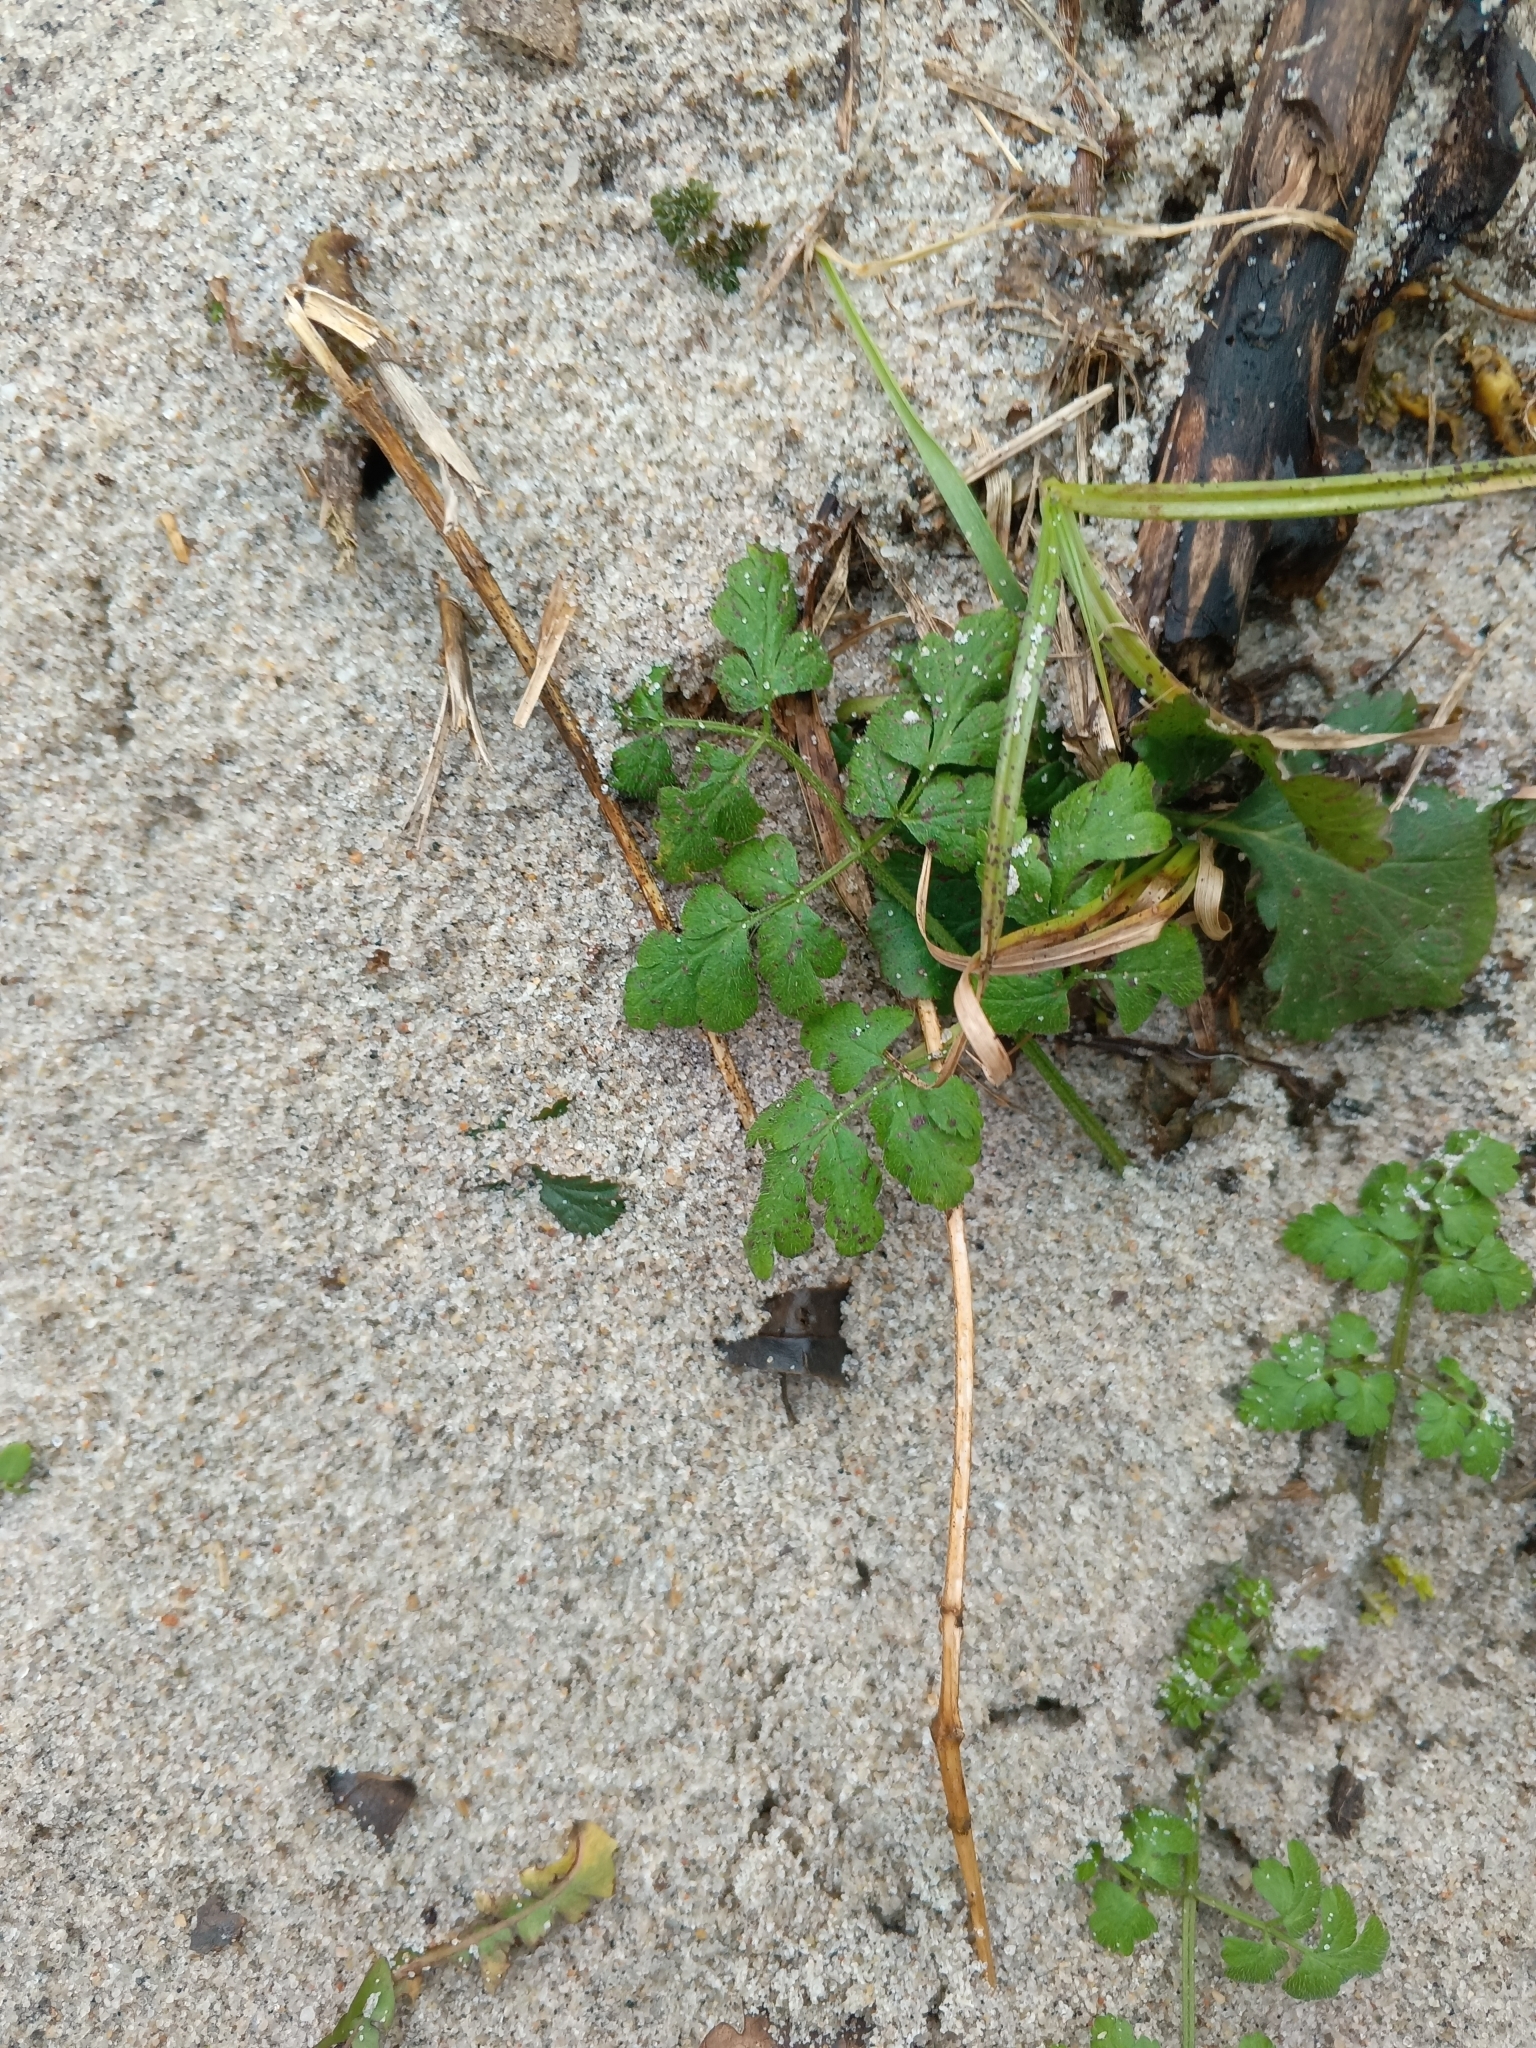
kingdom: Plantae
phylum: Tracheophyta
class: Magnoliopsida
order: Apiales
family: Apiaceae
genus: Chaerophyllum
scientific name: Chaerophyllum temulum
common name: Rough chervil
